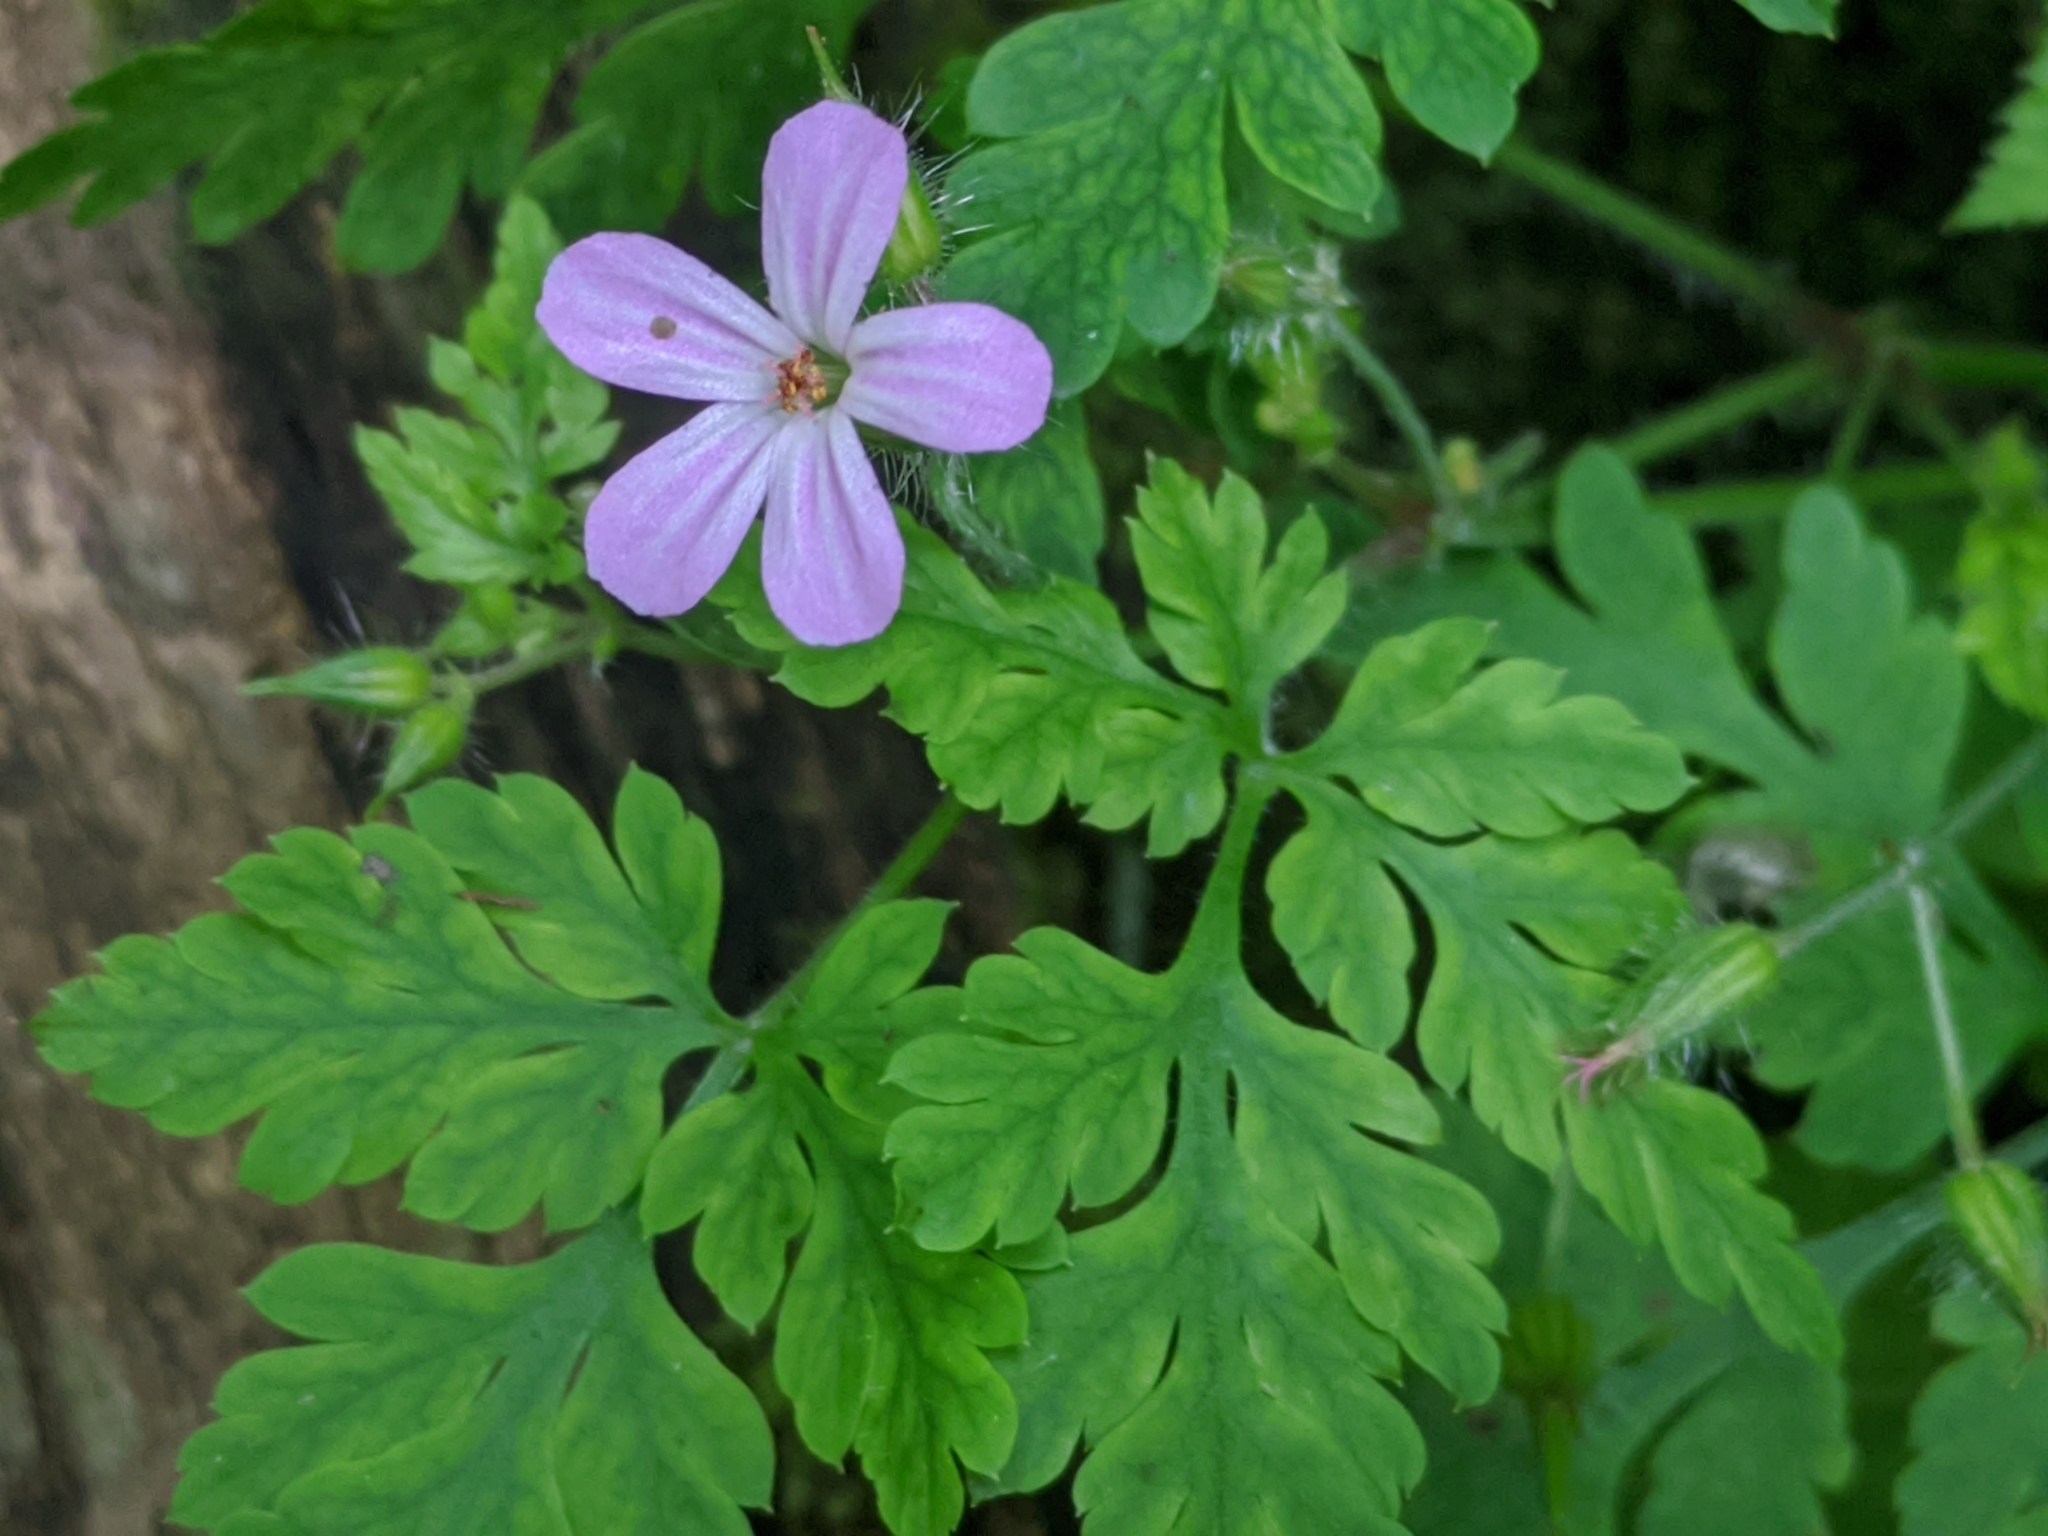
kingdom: Plantae
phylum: Tracheophyta
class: Magnoliopsida
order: Geraniales
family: Geraniaceae
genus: Geranium
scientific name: Geranium robertianum
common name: Herb-robert
